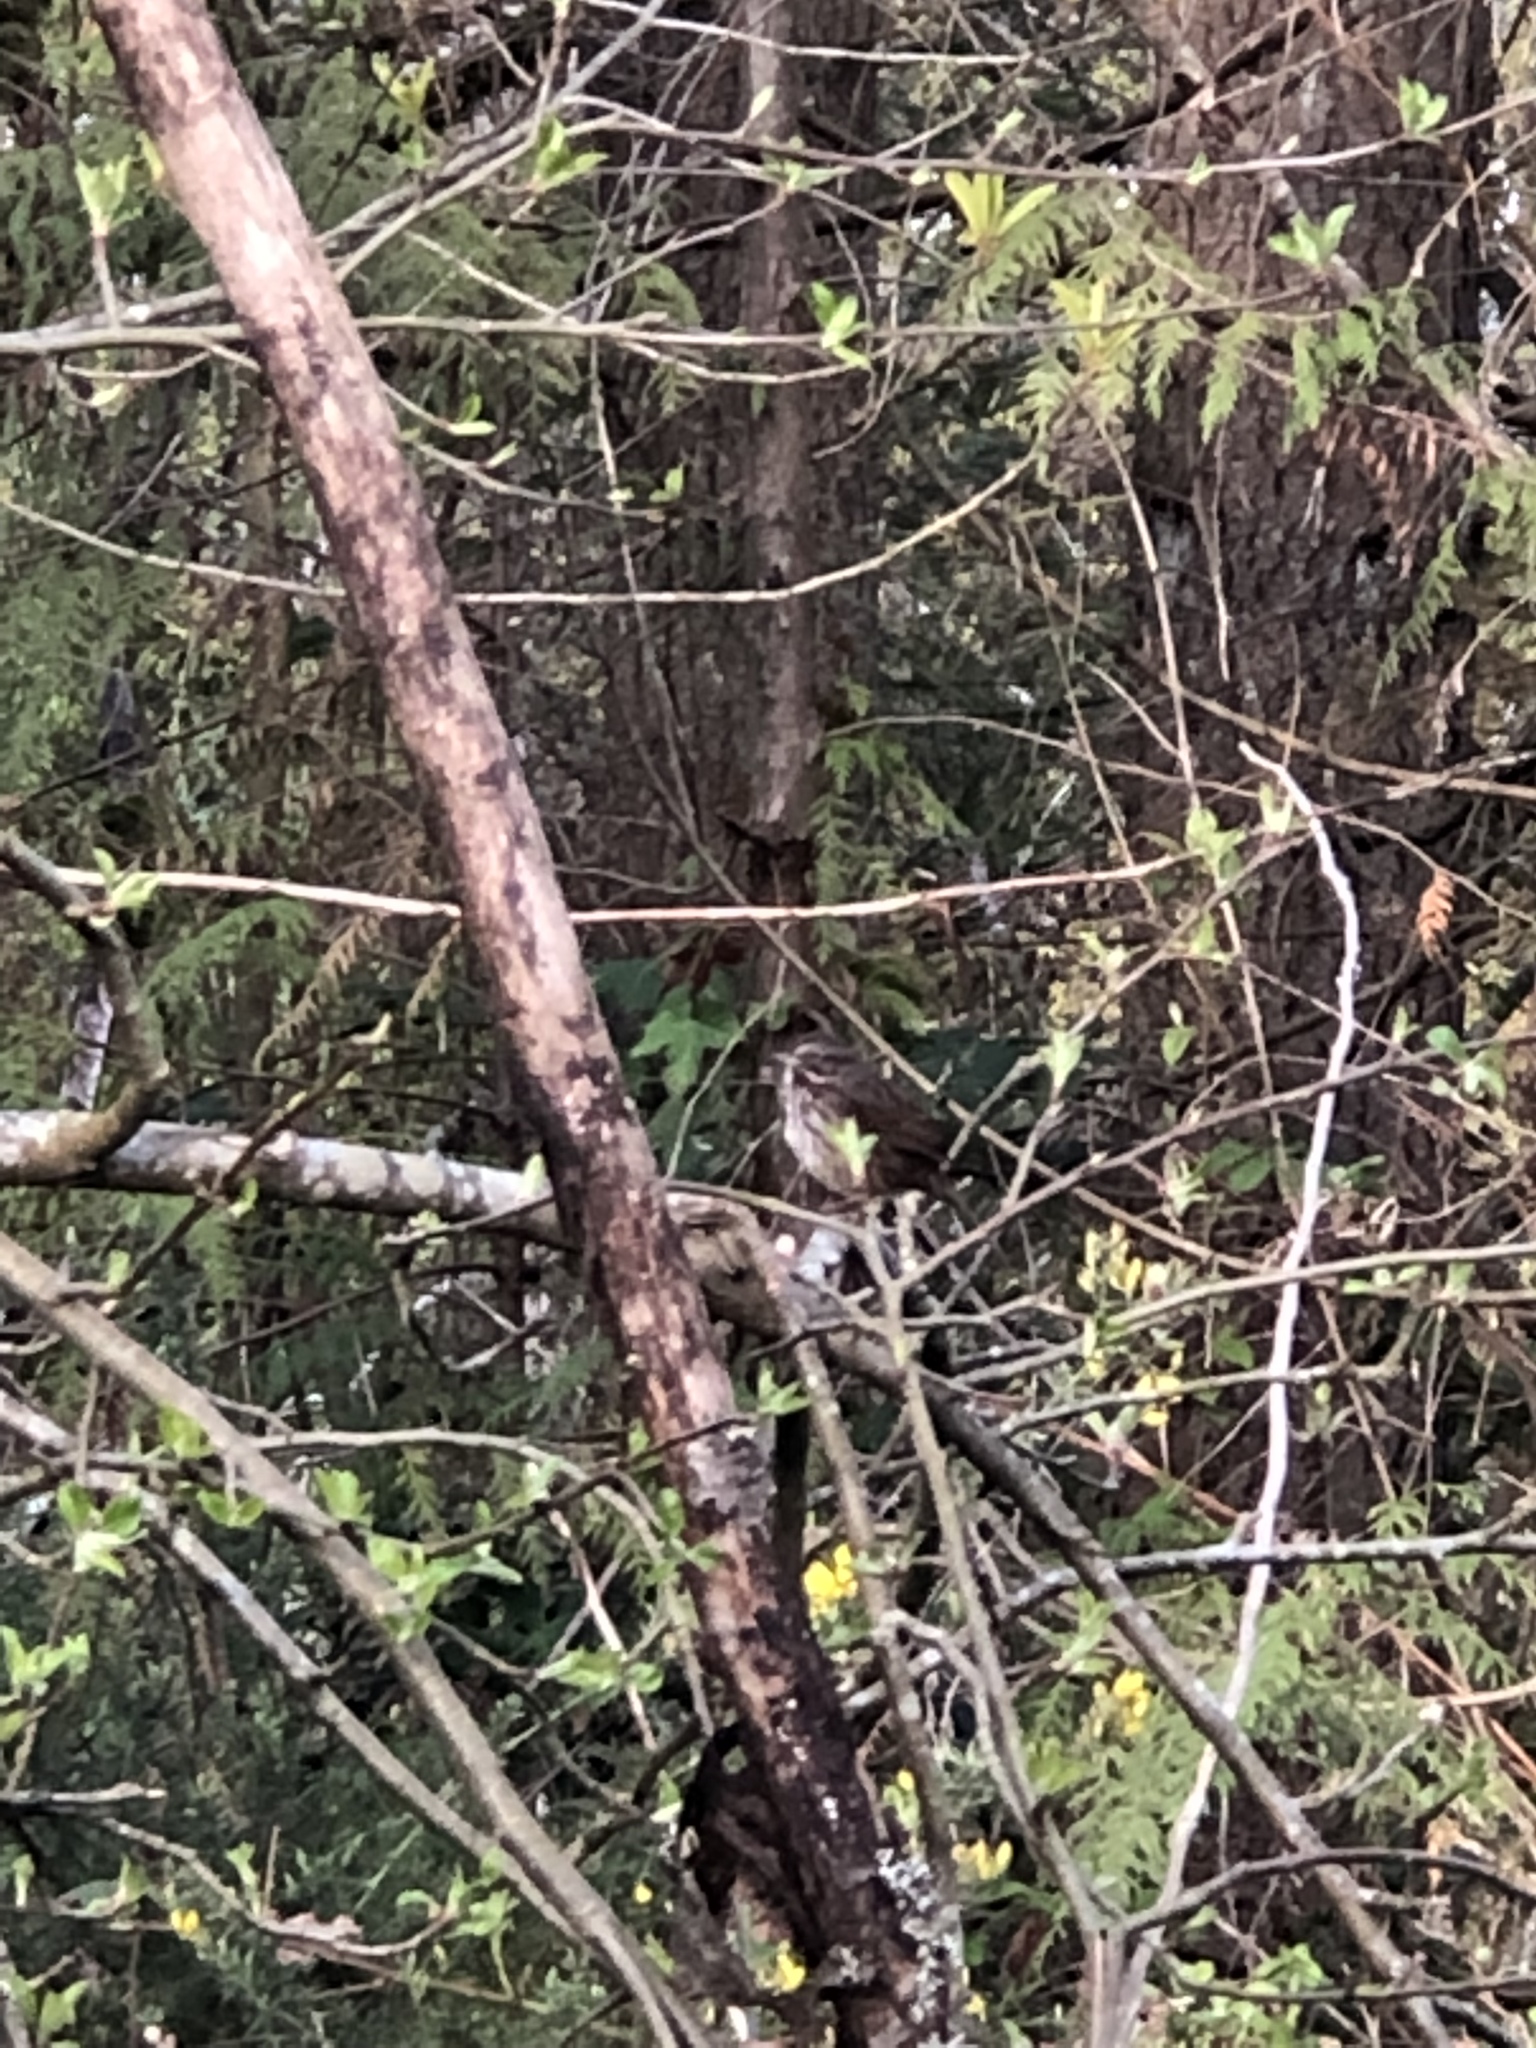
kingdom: Animalia
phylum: Chordata
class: Aves
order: Passeriformes
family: Passerellidae
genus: Melospiza
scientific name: Melospiza melodia
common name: Song sparrow
